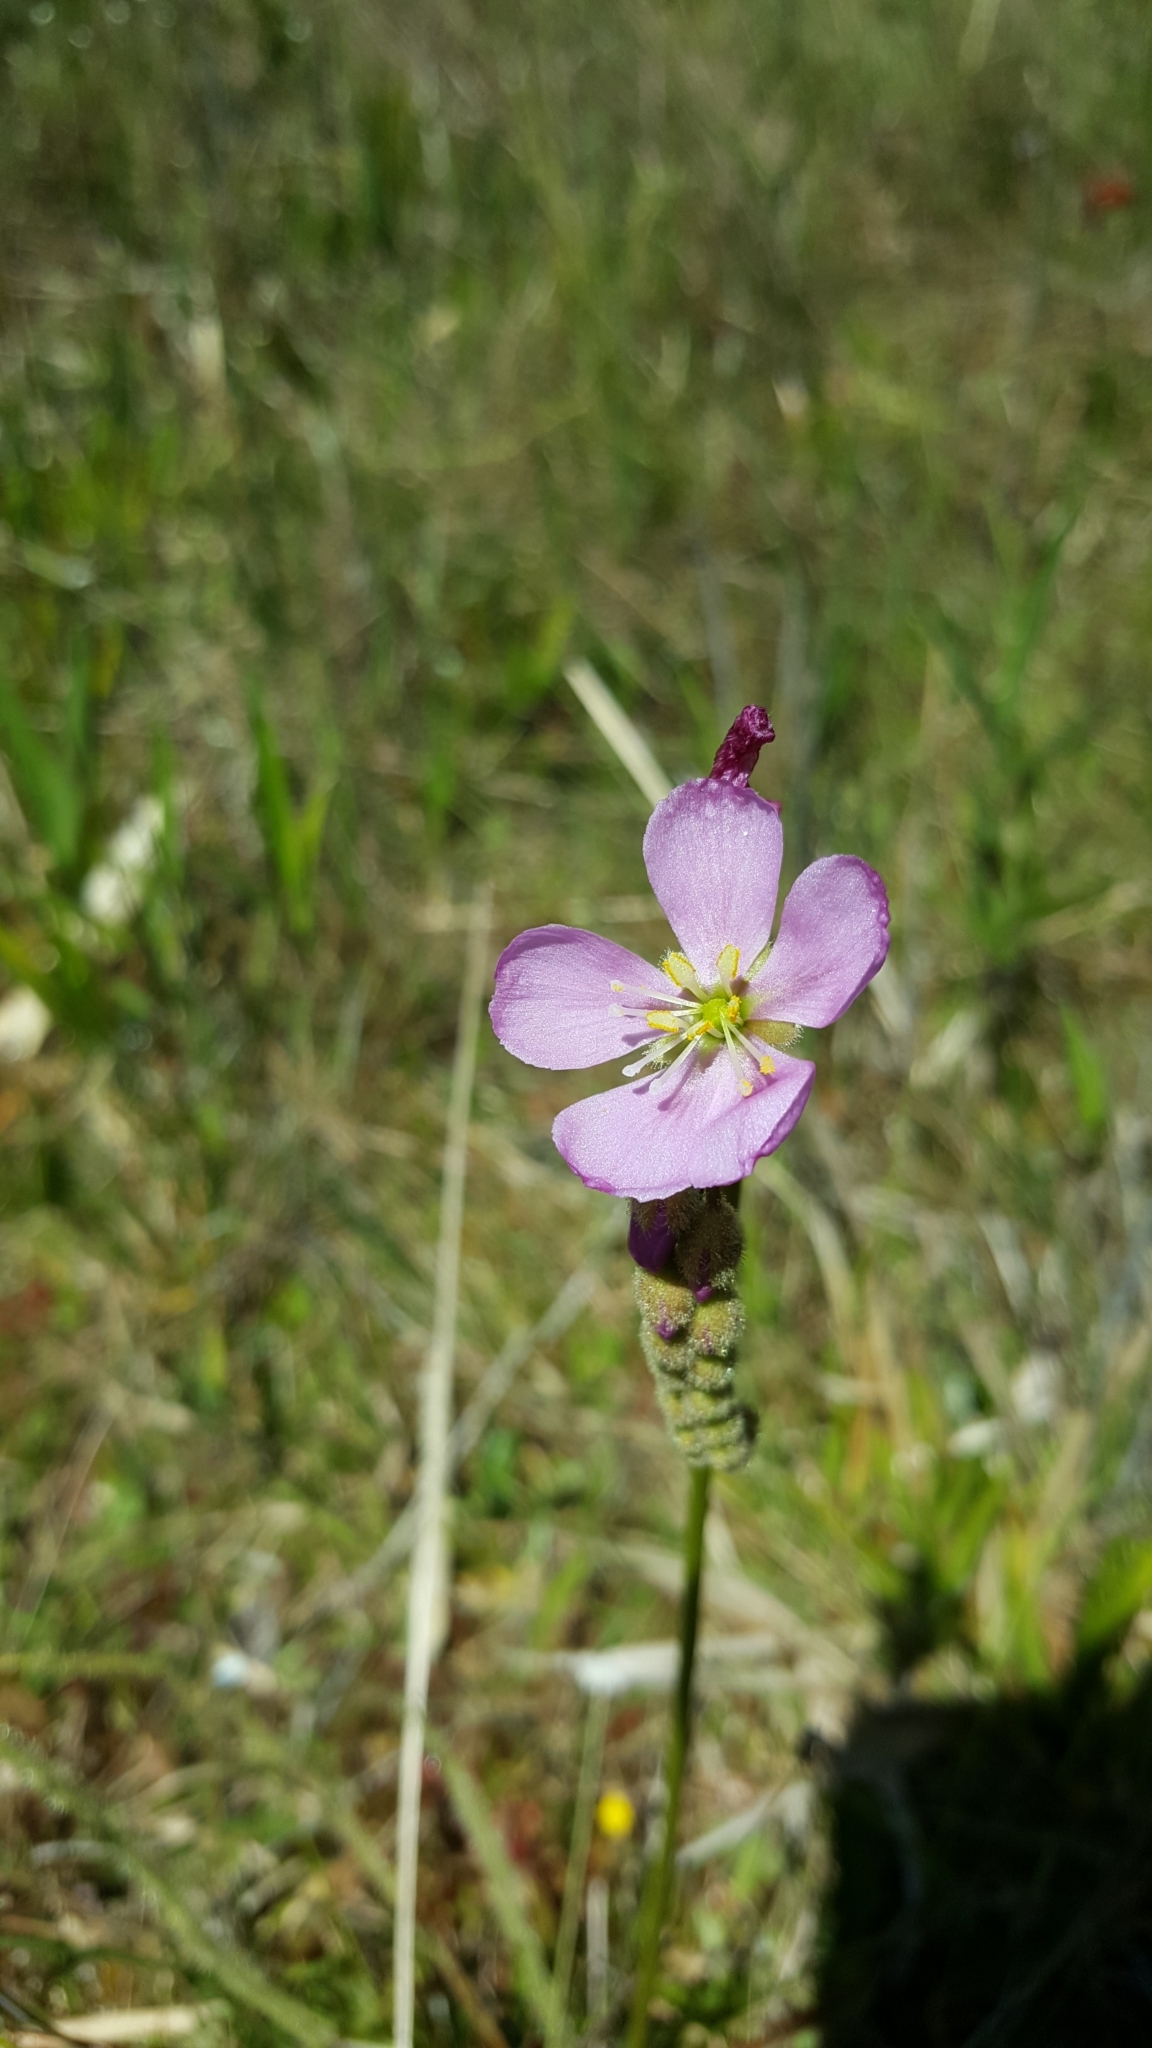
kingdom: Plantae
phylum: Tracheophyta
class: Magnoliopsida
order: Caryophyllales
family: Droseraceae
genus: Drosera
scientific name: Drosera filiformis
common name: Dew-thread
